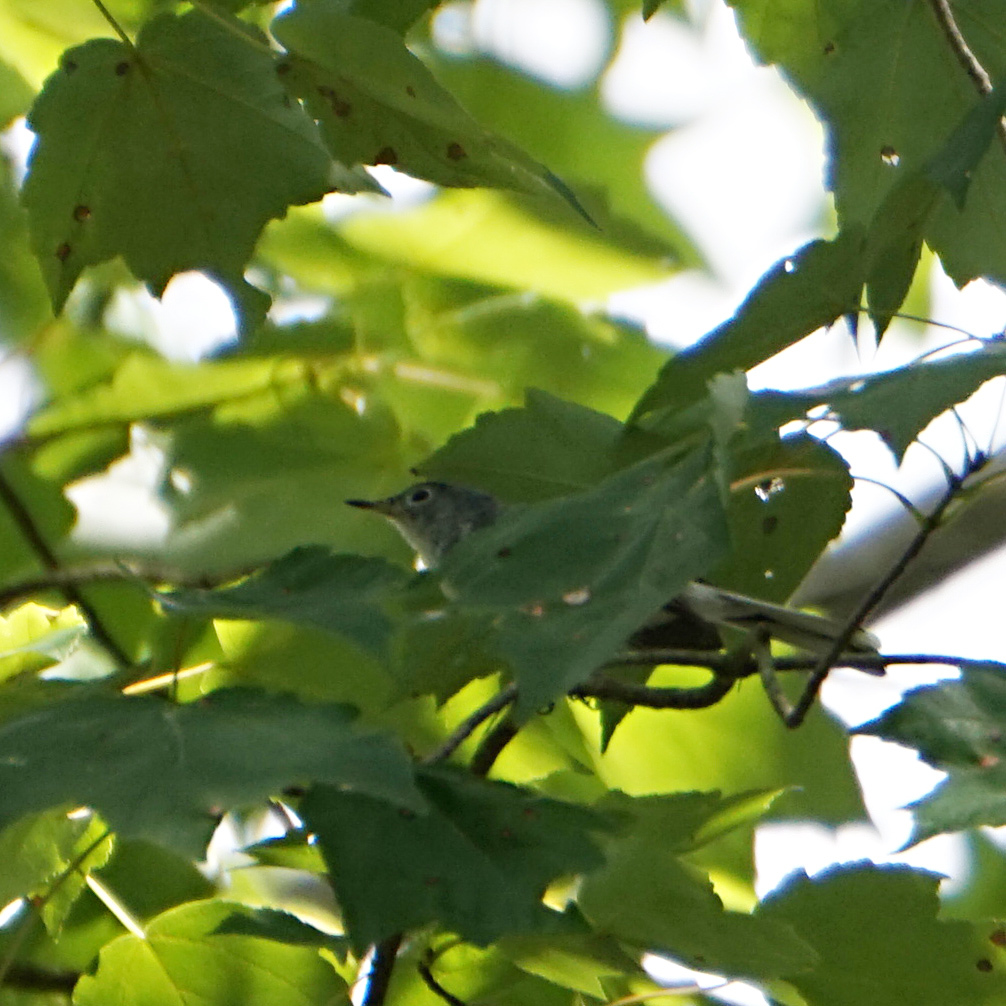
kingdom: Animalia
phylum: Chordata
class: Aves
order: Passeriformes
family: Polioptilidae
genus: Polioptila
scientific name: Polioptila caerulea
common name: Blue-gray gnatcatcher
